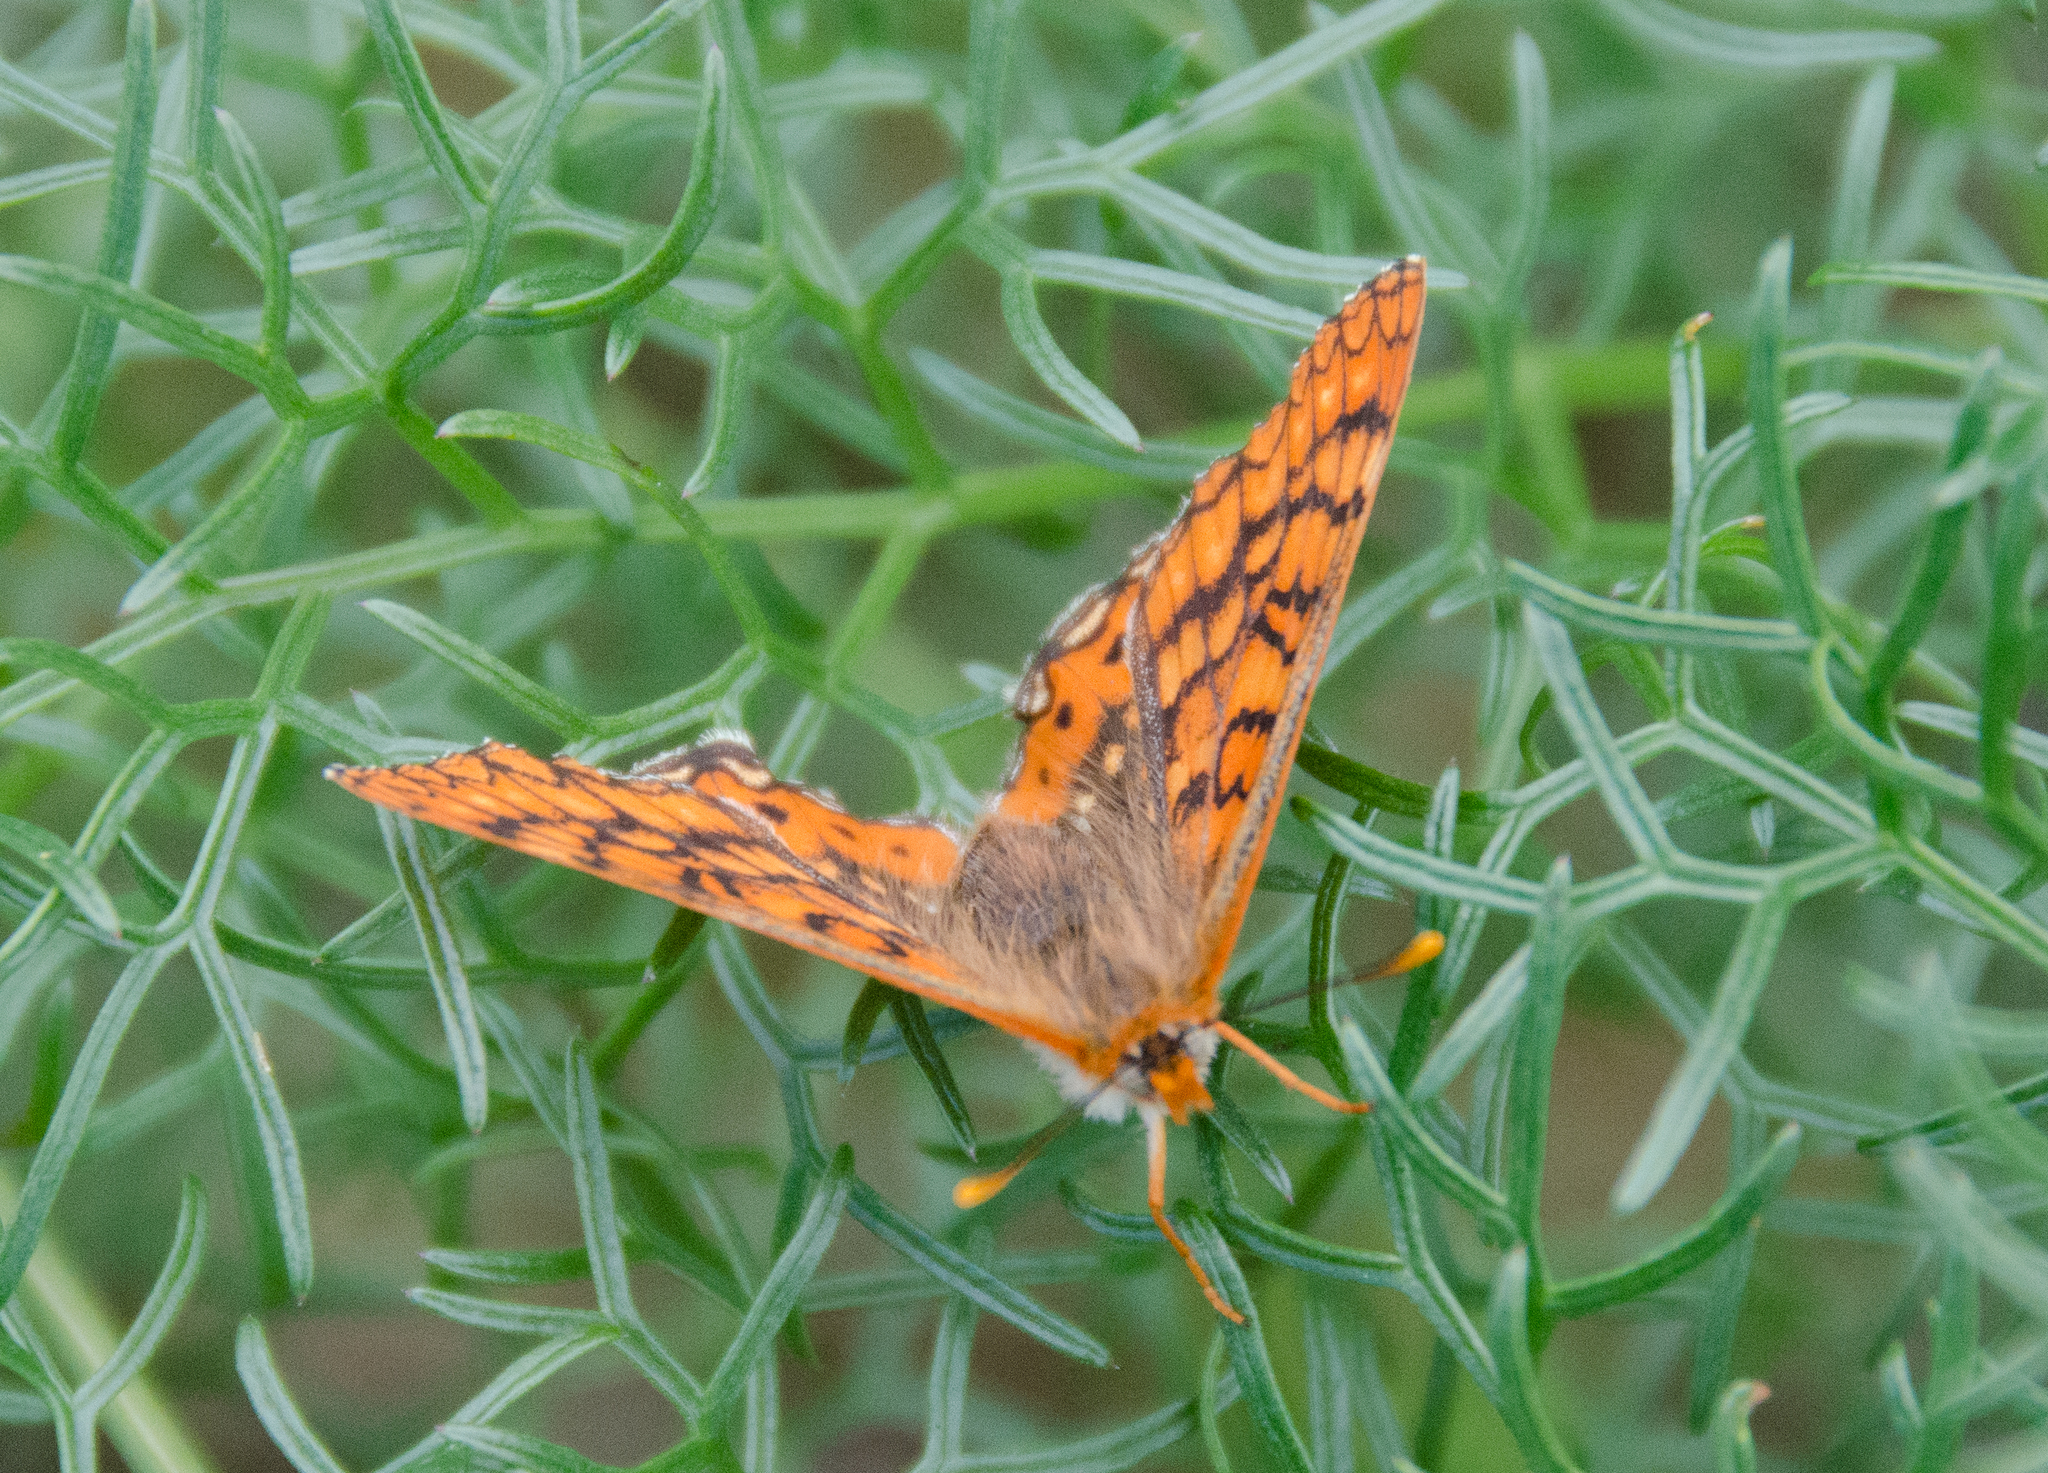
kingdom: Animalia
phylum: Arthropoda
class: Insecta
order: Lepidoptera
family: Nymphalidae
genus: Euphydryas
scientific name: Euphydryas aurinia
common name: Marsh fritillary
